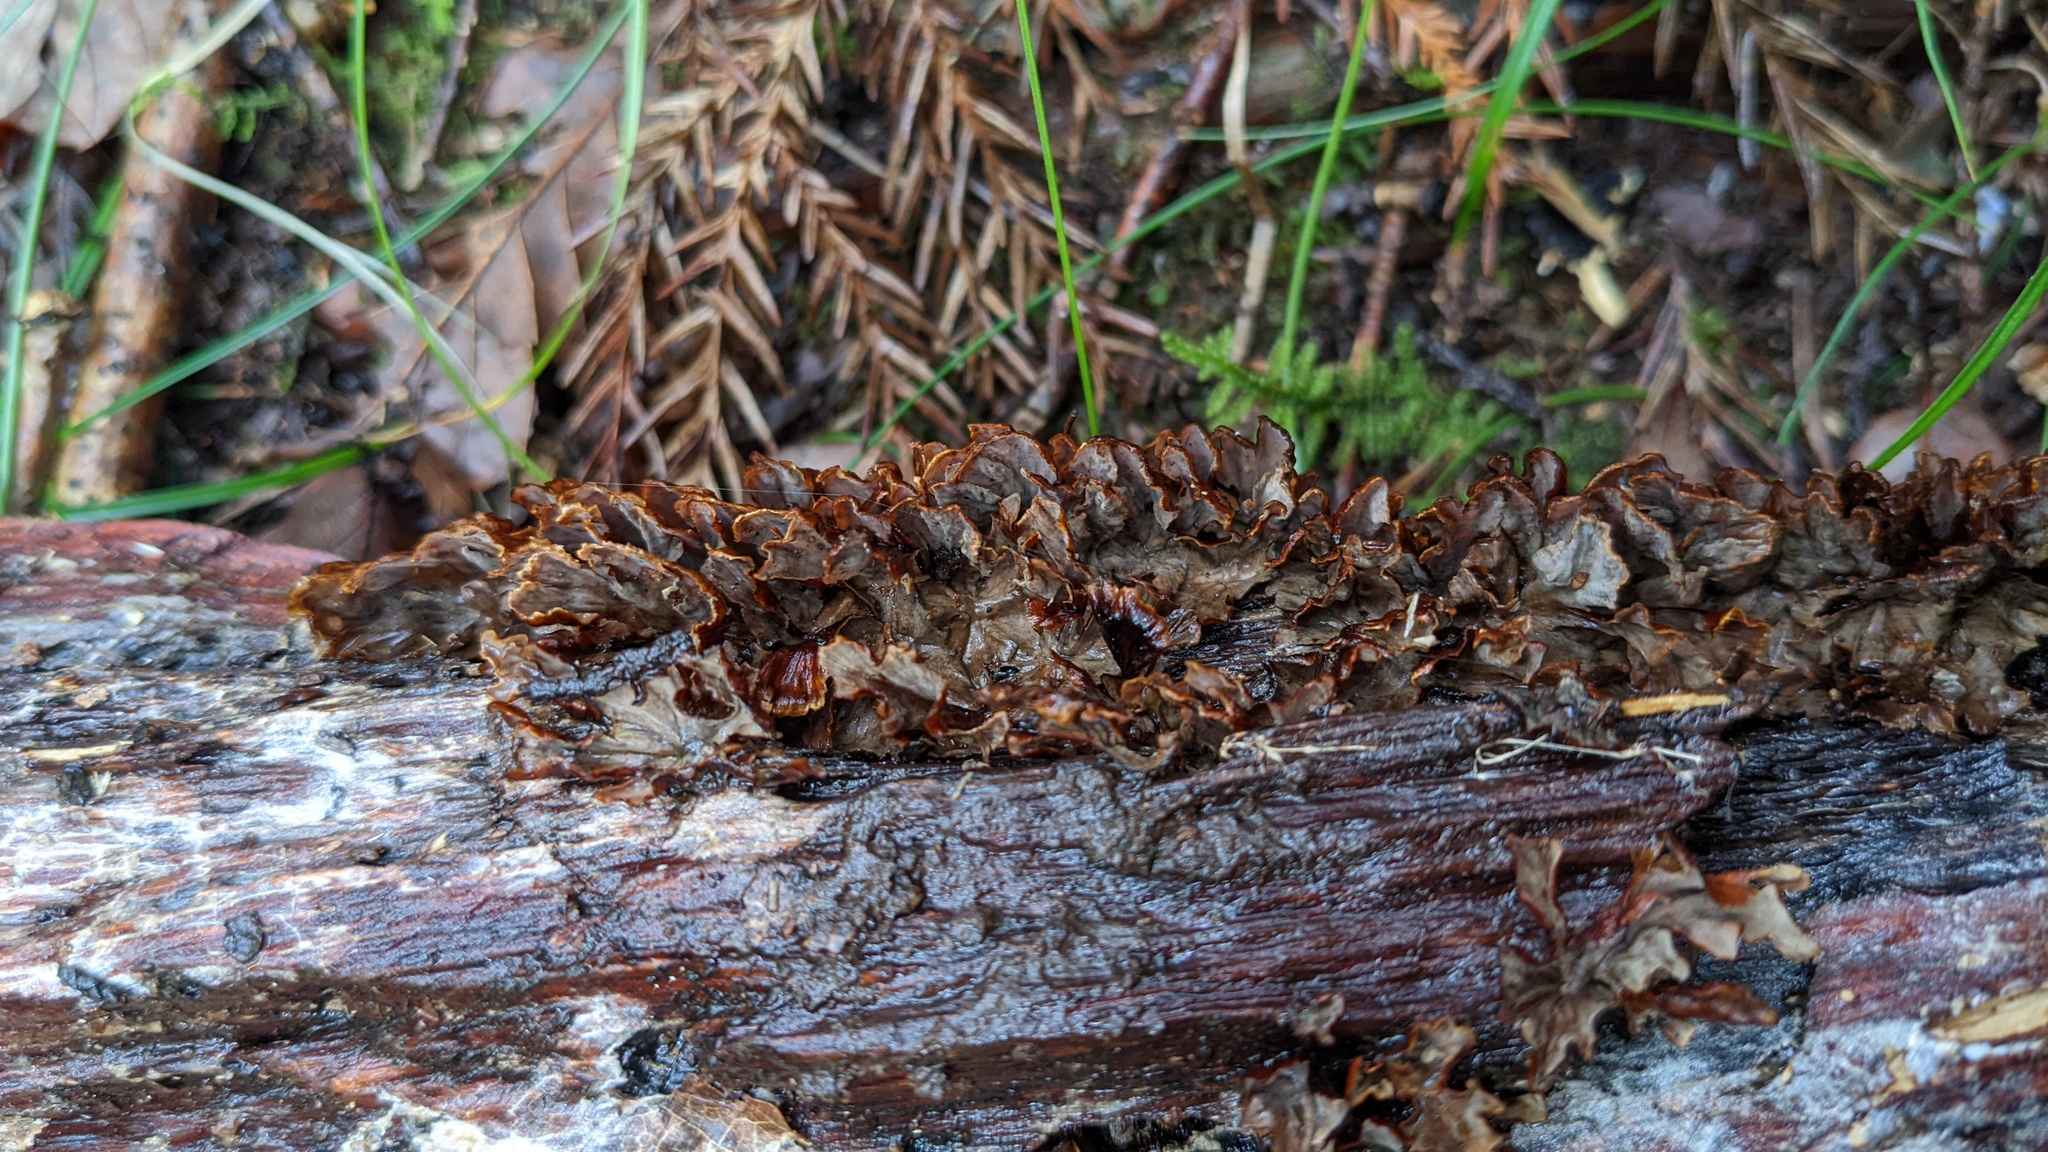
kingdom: Fungi
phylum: Basidiomycota
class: Agaricomycetes
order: Russulales
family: Stereaceae
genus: Xylobolus
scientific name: Xylobolus spectabilis
